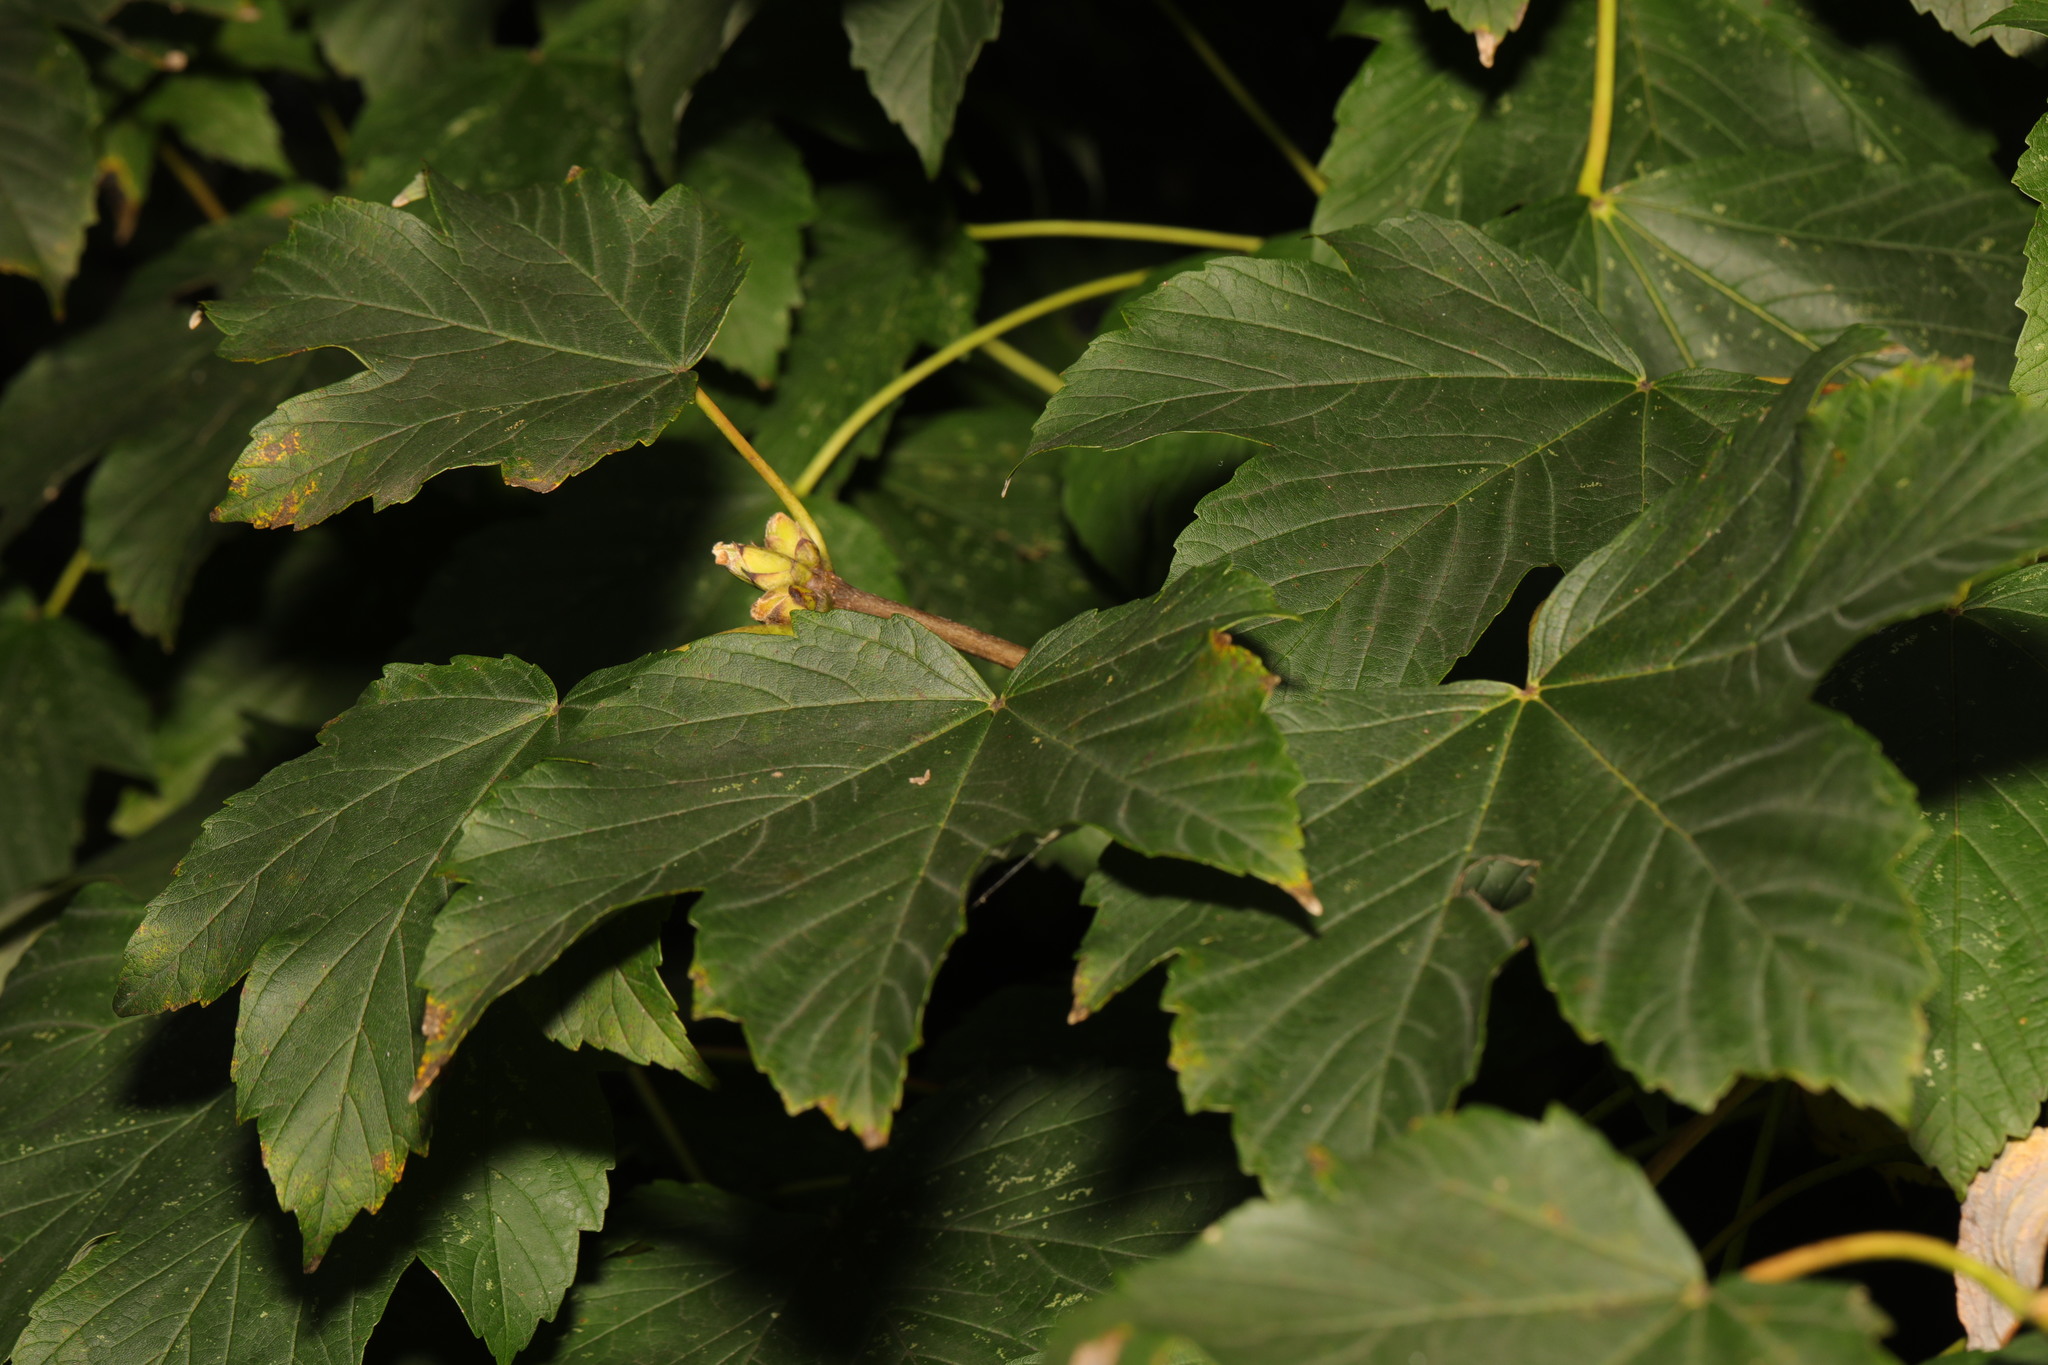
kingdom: Plantae
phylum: Tracheophyta
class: Magnoliopsida
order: Sapindales
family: Sapindaceae
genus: Acer
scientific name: Acer pseudoplatanus
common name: Sycamore
